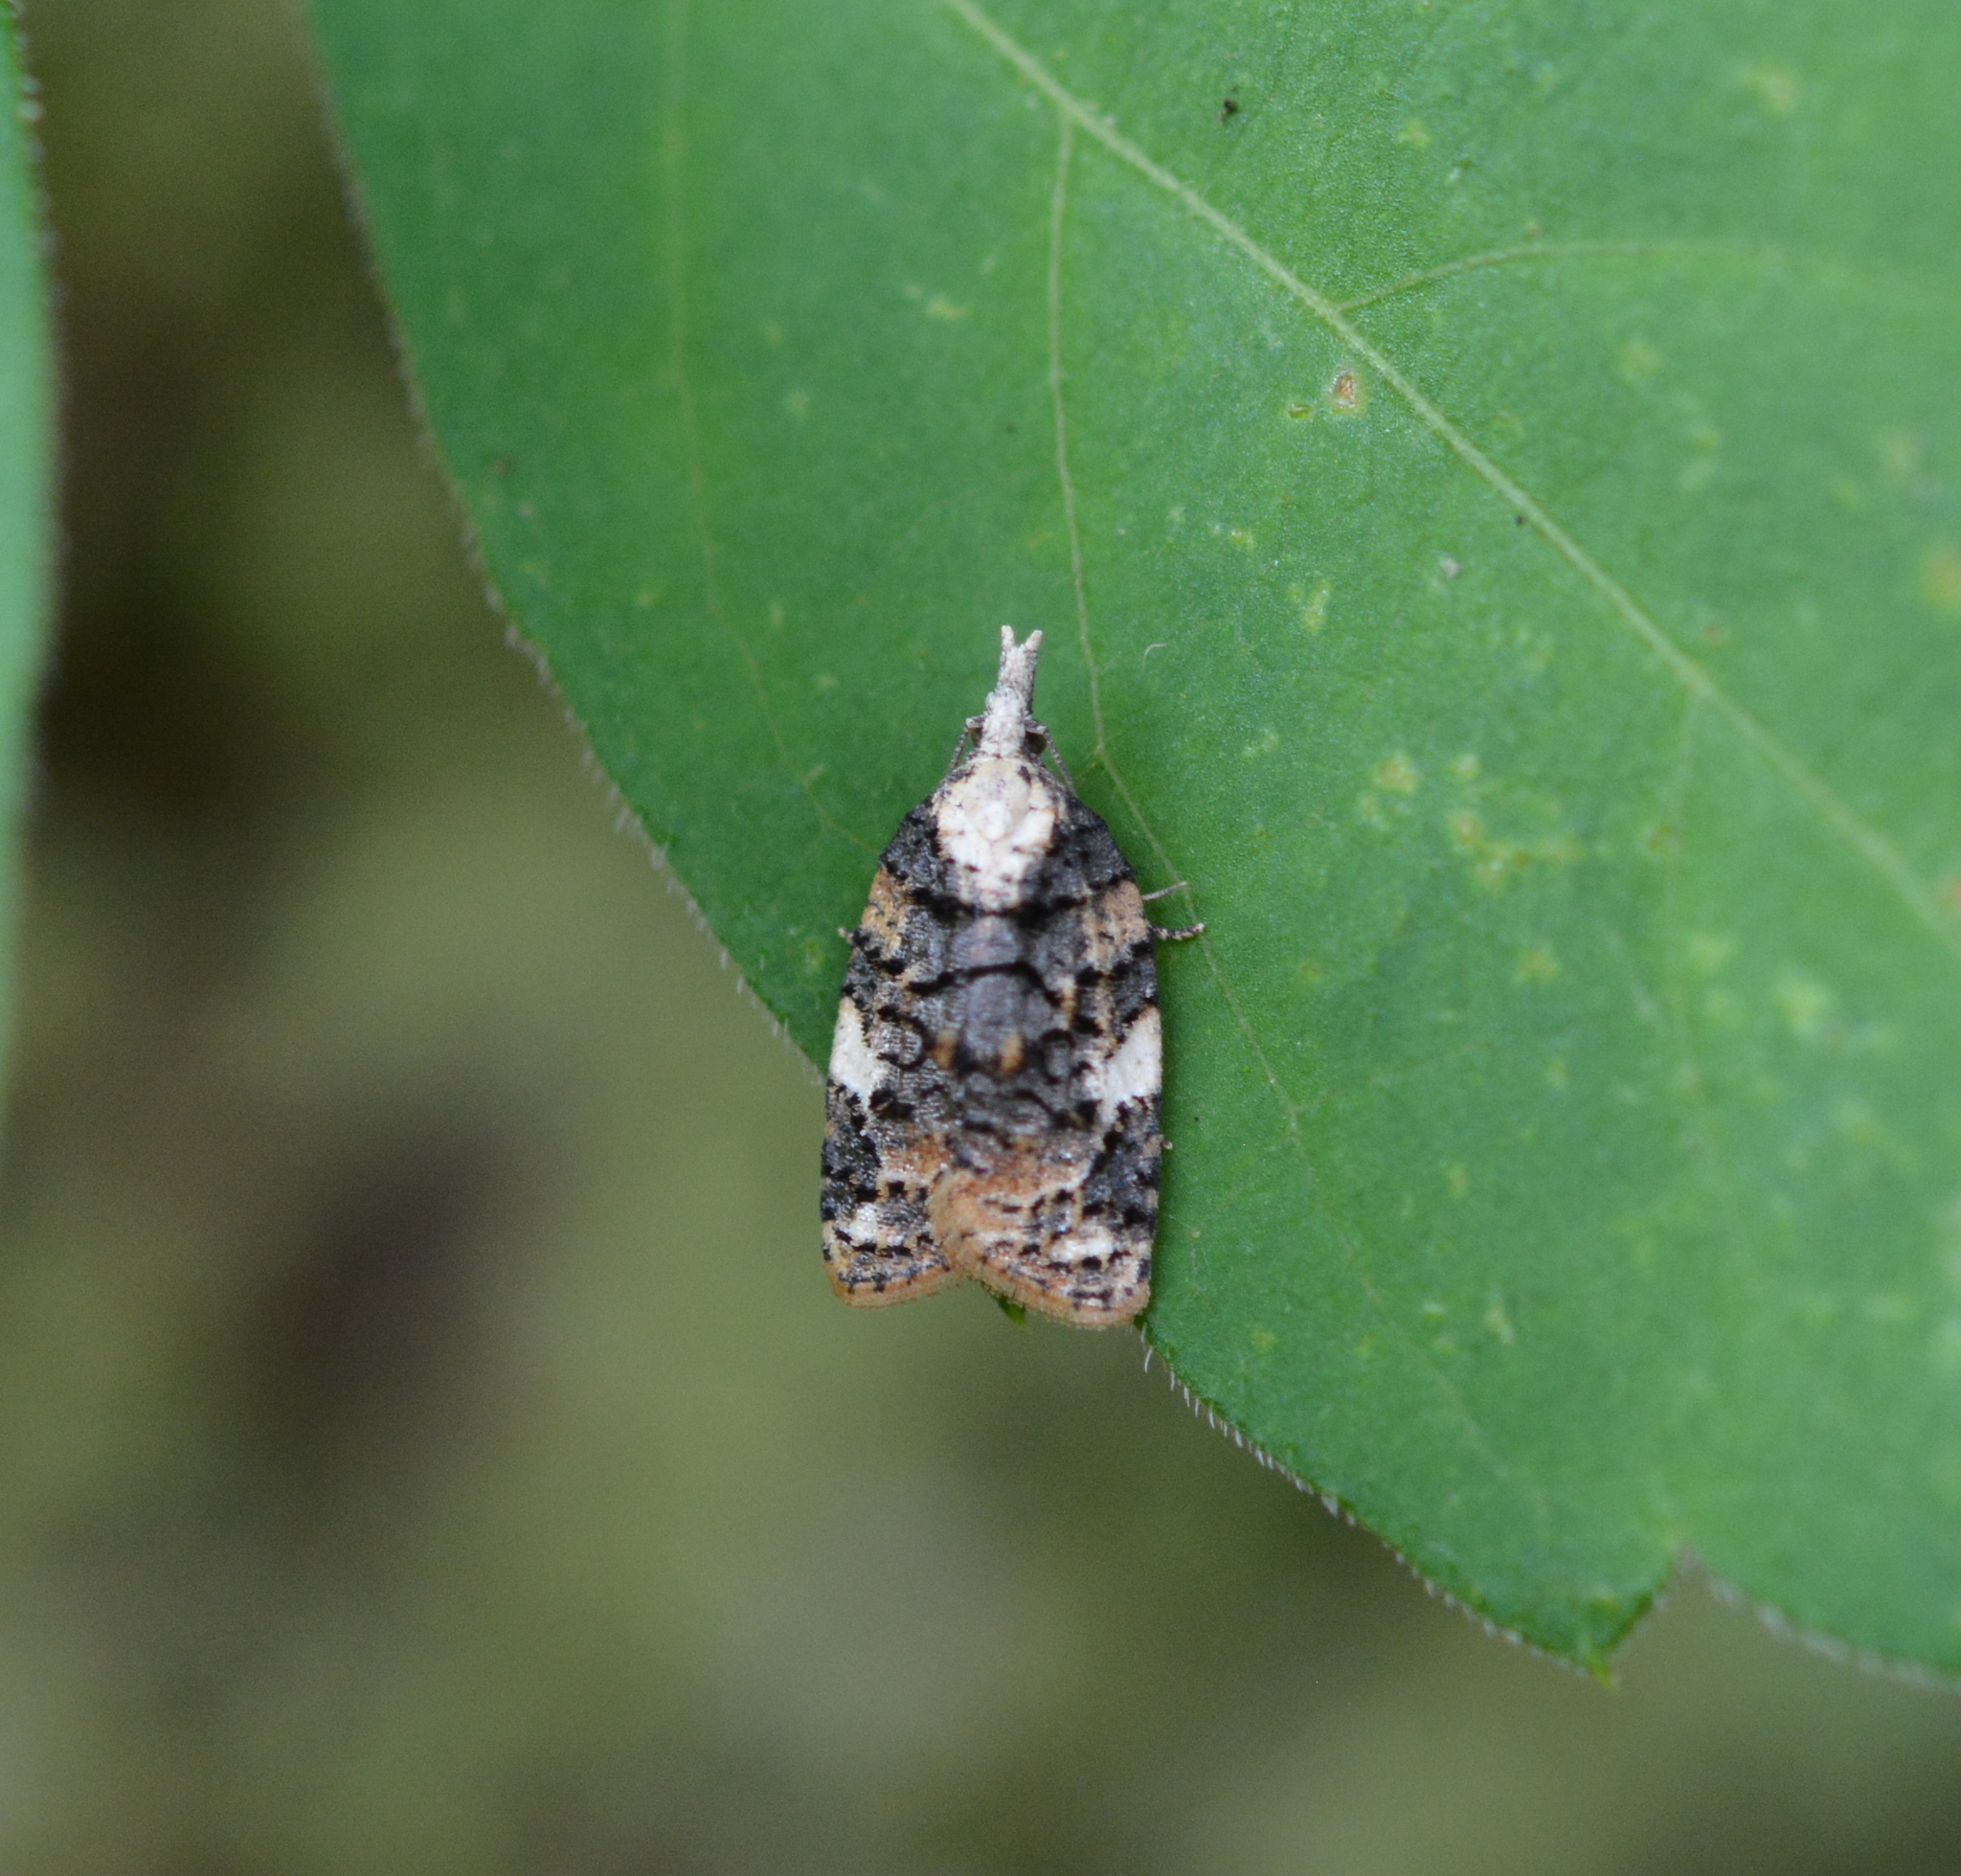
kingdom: Animalia
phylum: Arthropoda
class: Insecta
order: Lepidoptera
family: Tortricidae
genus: Platynota
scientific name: Platynota exasperatana
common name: Exasperating platynota moth
